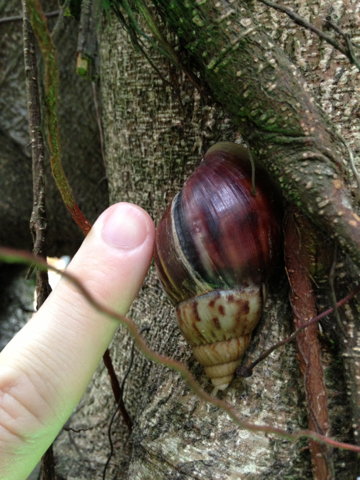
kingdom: Animalia
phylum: Mollusca
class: Gastropoda
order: Stylommatophora
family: Achatinidae
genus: Lissachatina
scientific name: Lissachatina fulica
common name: Giant african snail
